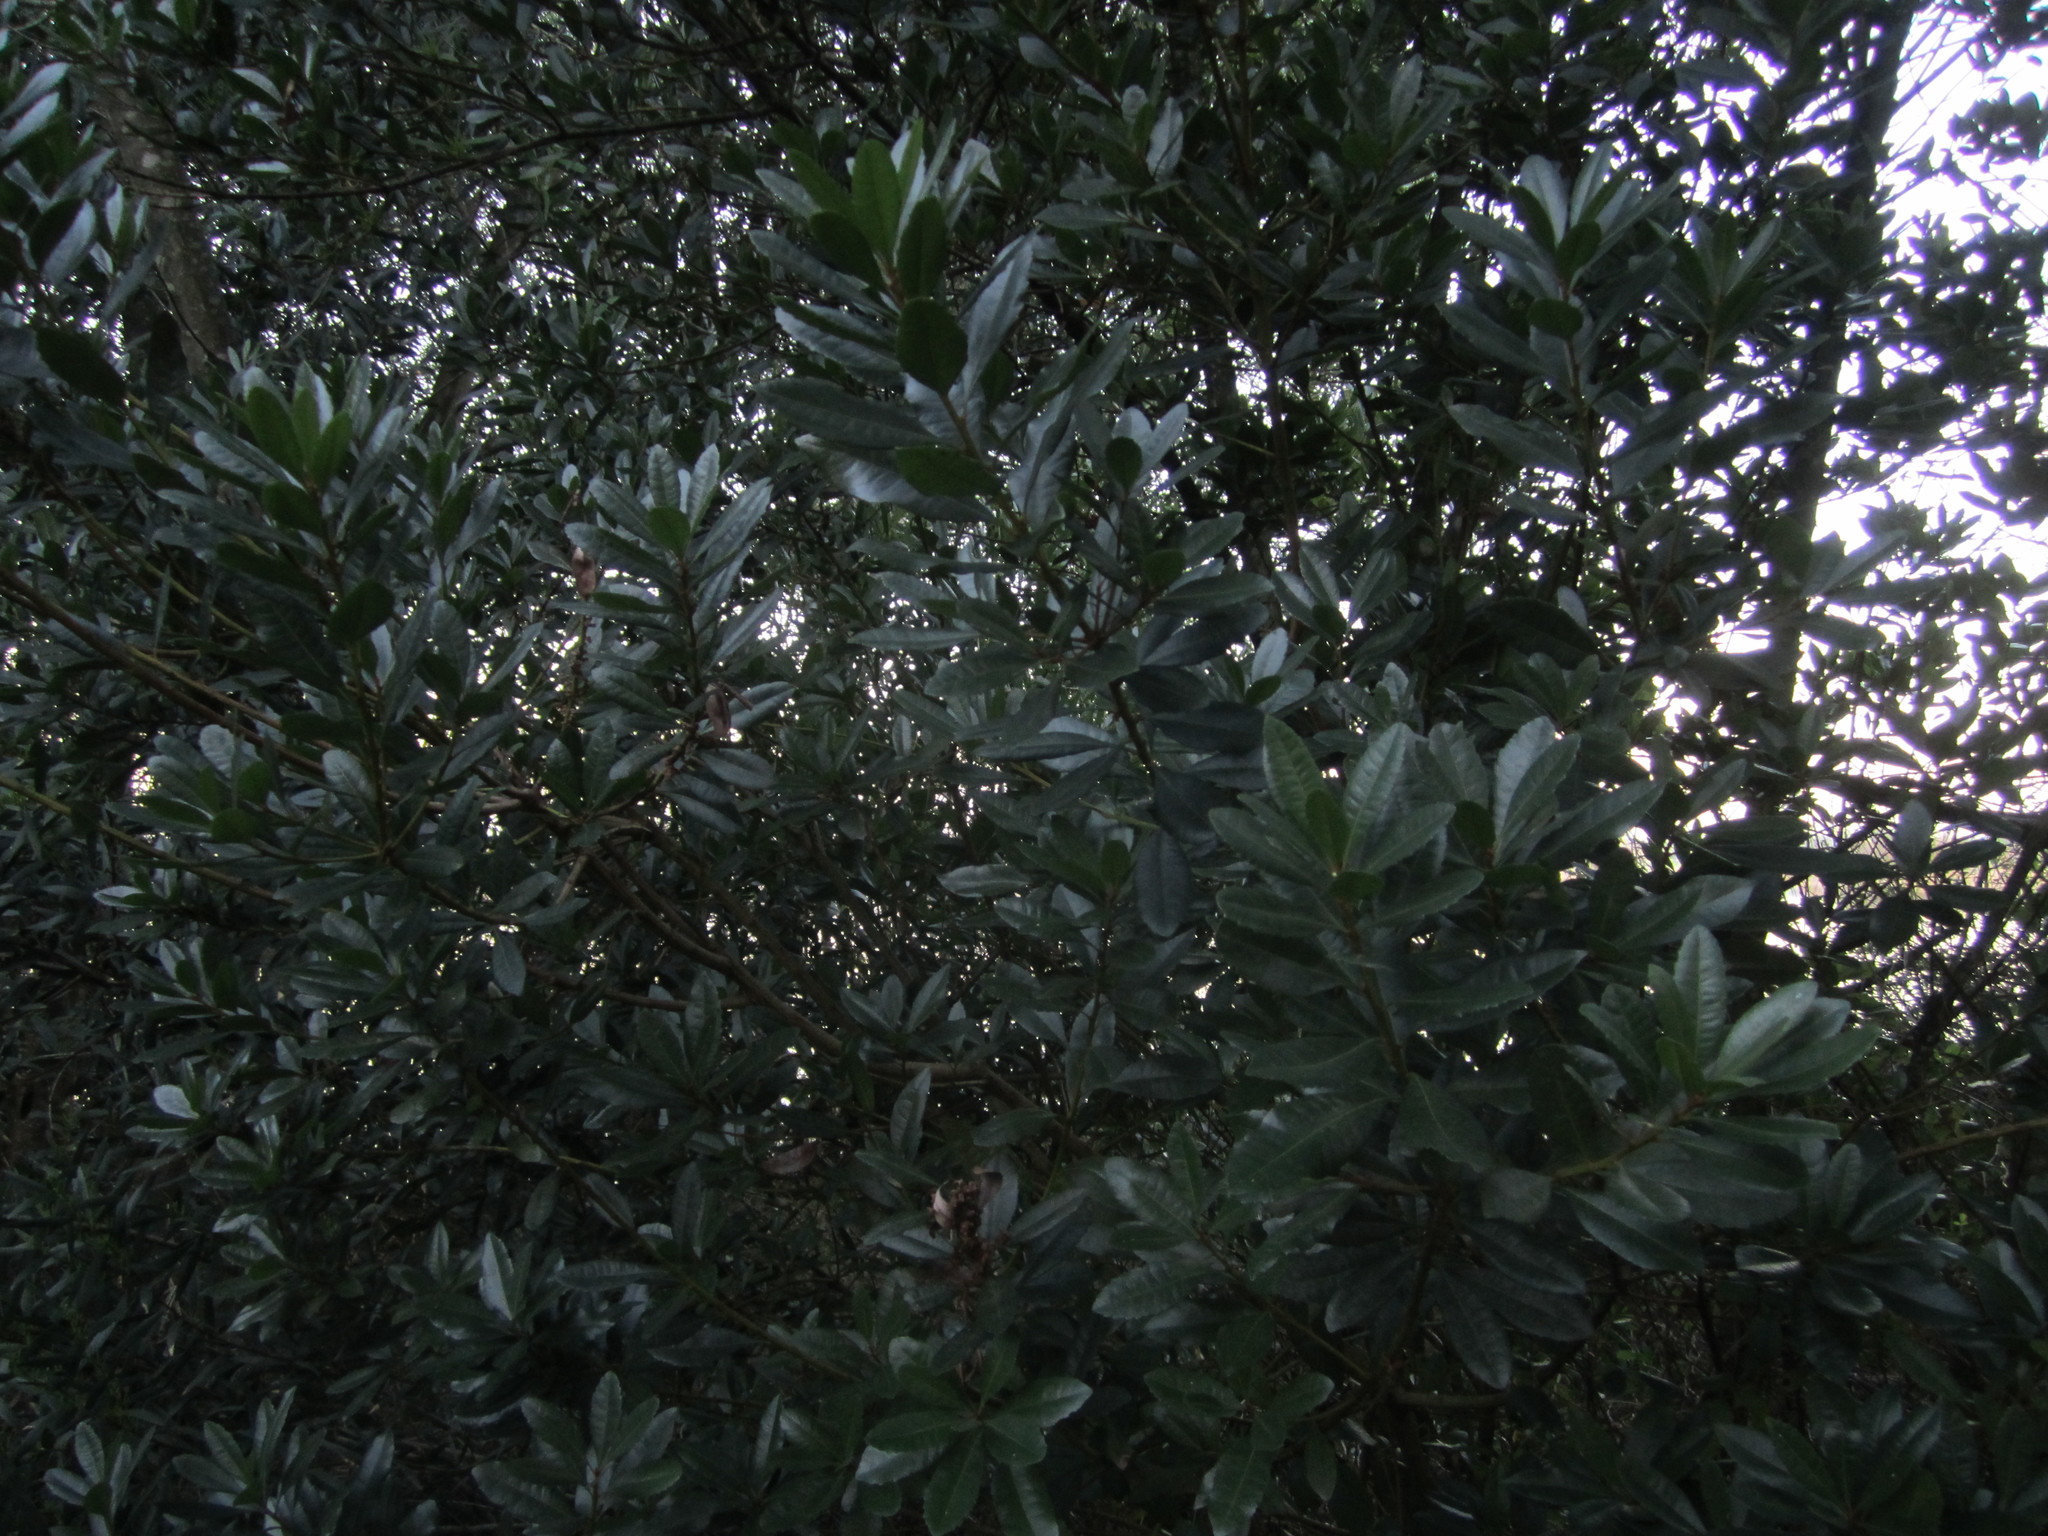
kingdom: Plantae
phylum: Tracheophyta
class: Magnoliopsida
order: Fagales
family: Myricaceae
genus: Morella
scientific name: Morella faya
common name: Firetree
